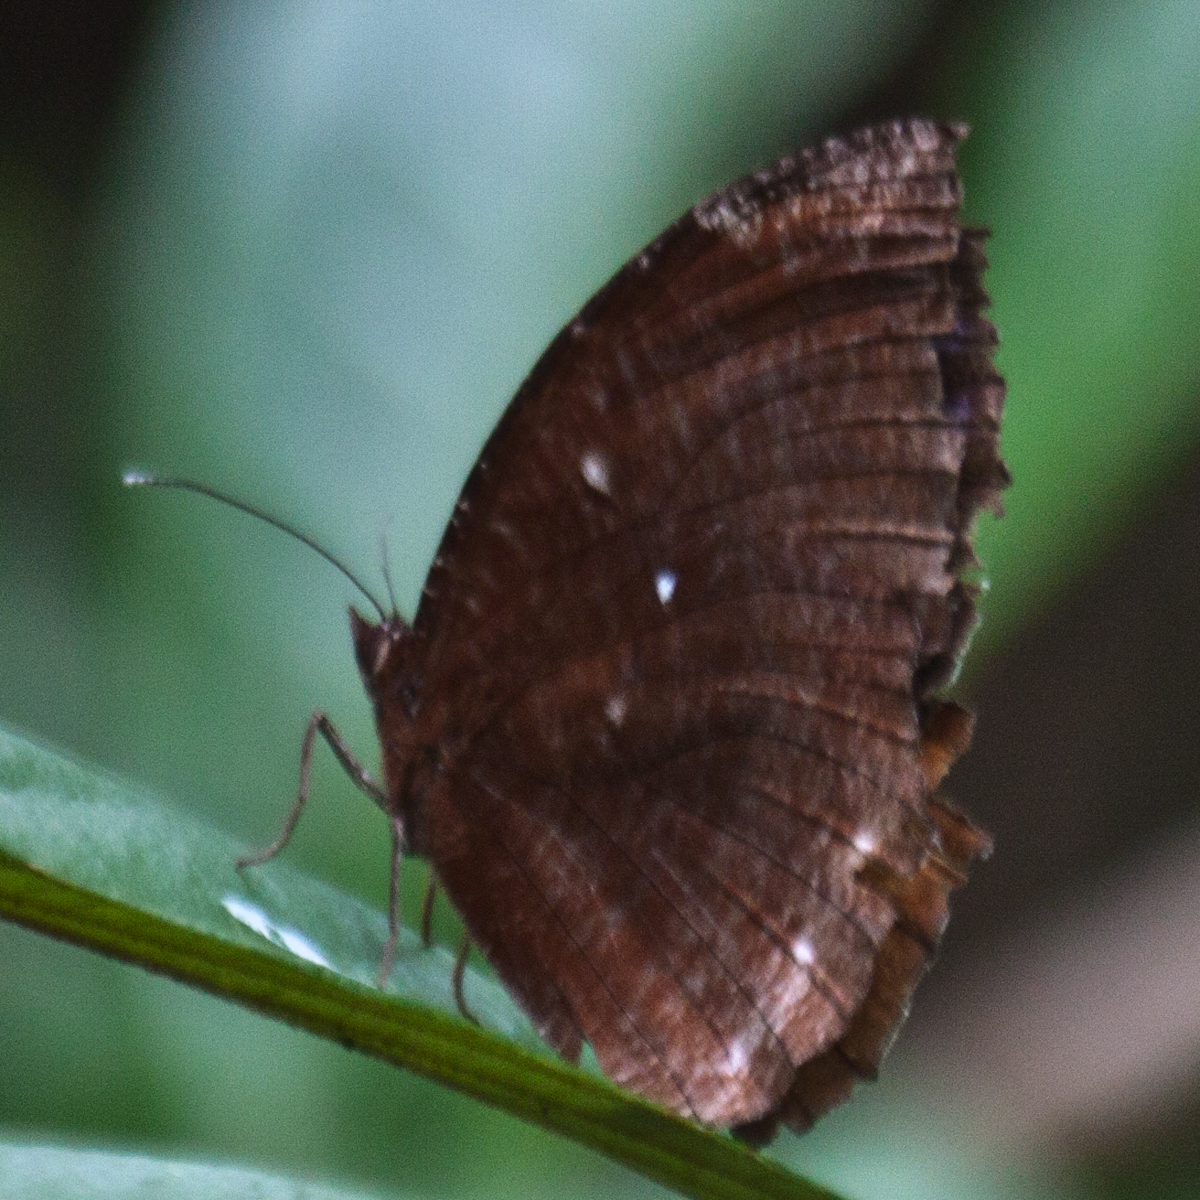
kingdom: Animalia
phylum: Arthropoda
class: Insecta
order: Lepidoptera
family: Nymphalidae
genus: Elymnias
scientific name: Elymnias hypermnestra
